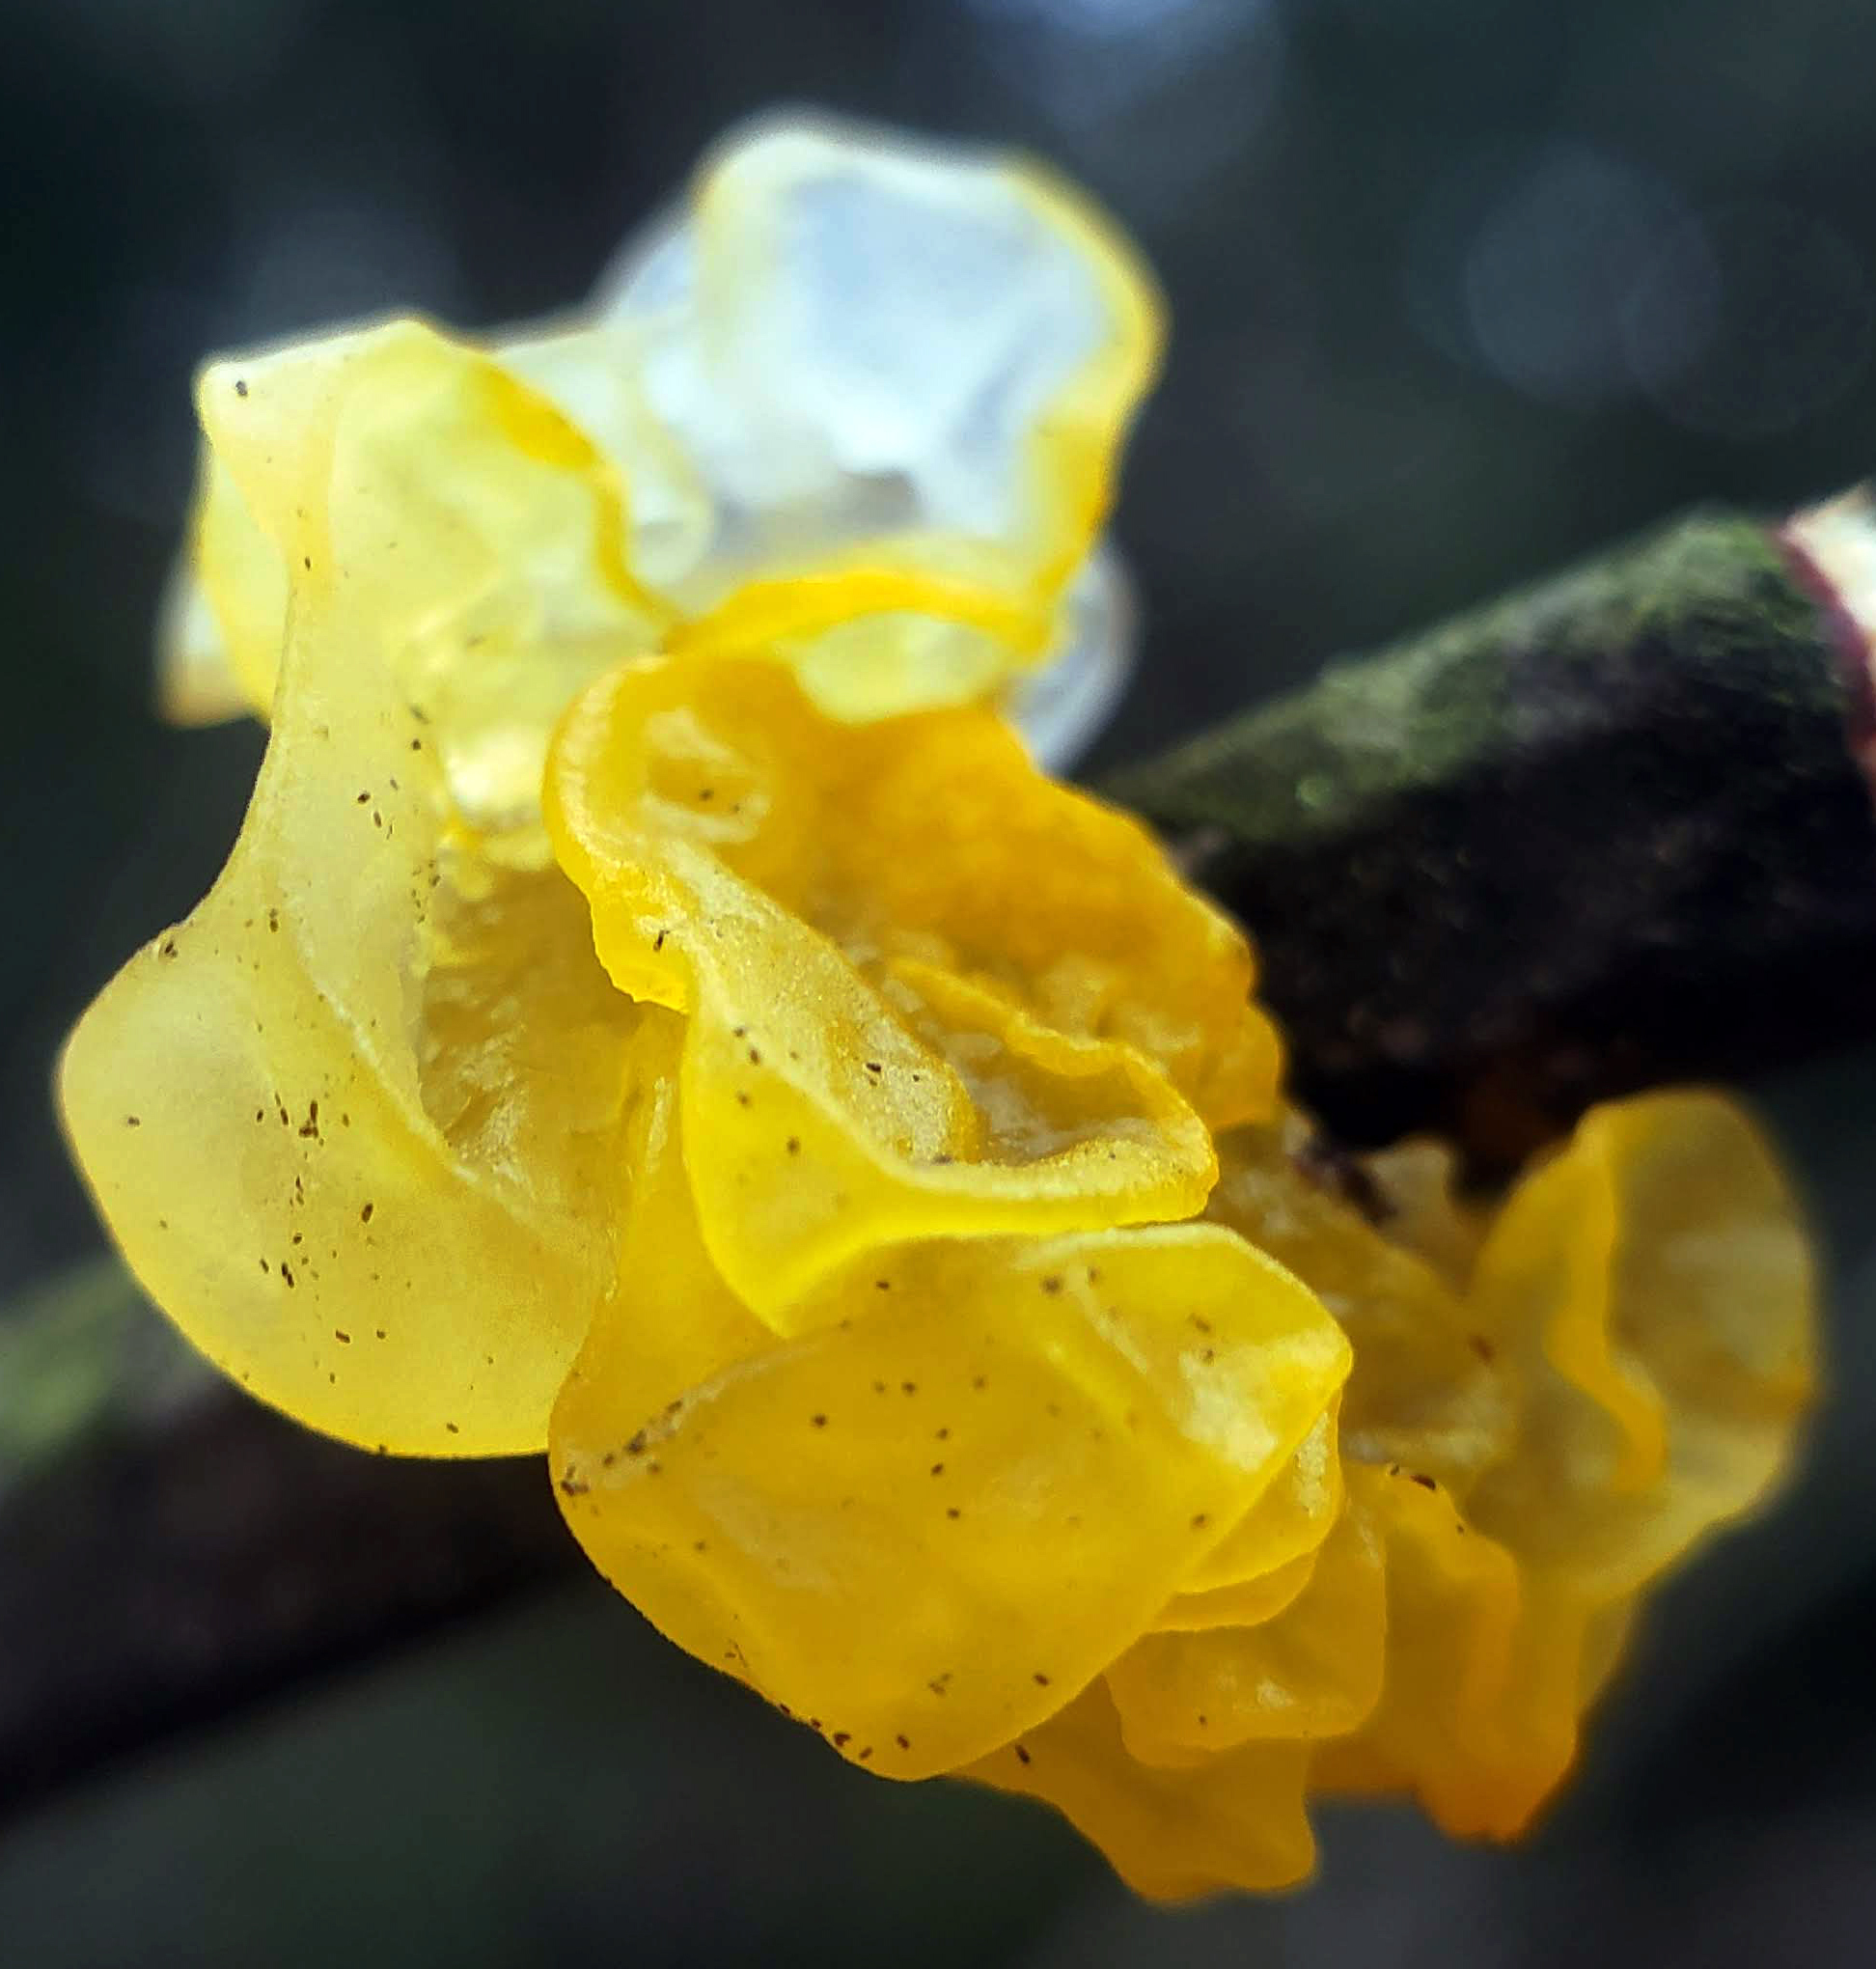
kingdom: Fungi
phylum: Basidiomycota
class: Tremellomycetes
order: Tremellales
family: Tremellaceae
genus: Tremella
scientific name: Tremella mesenterica
